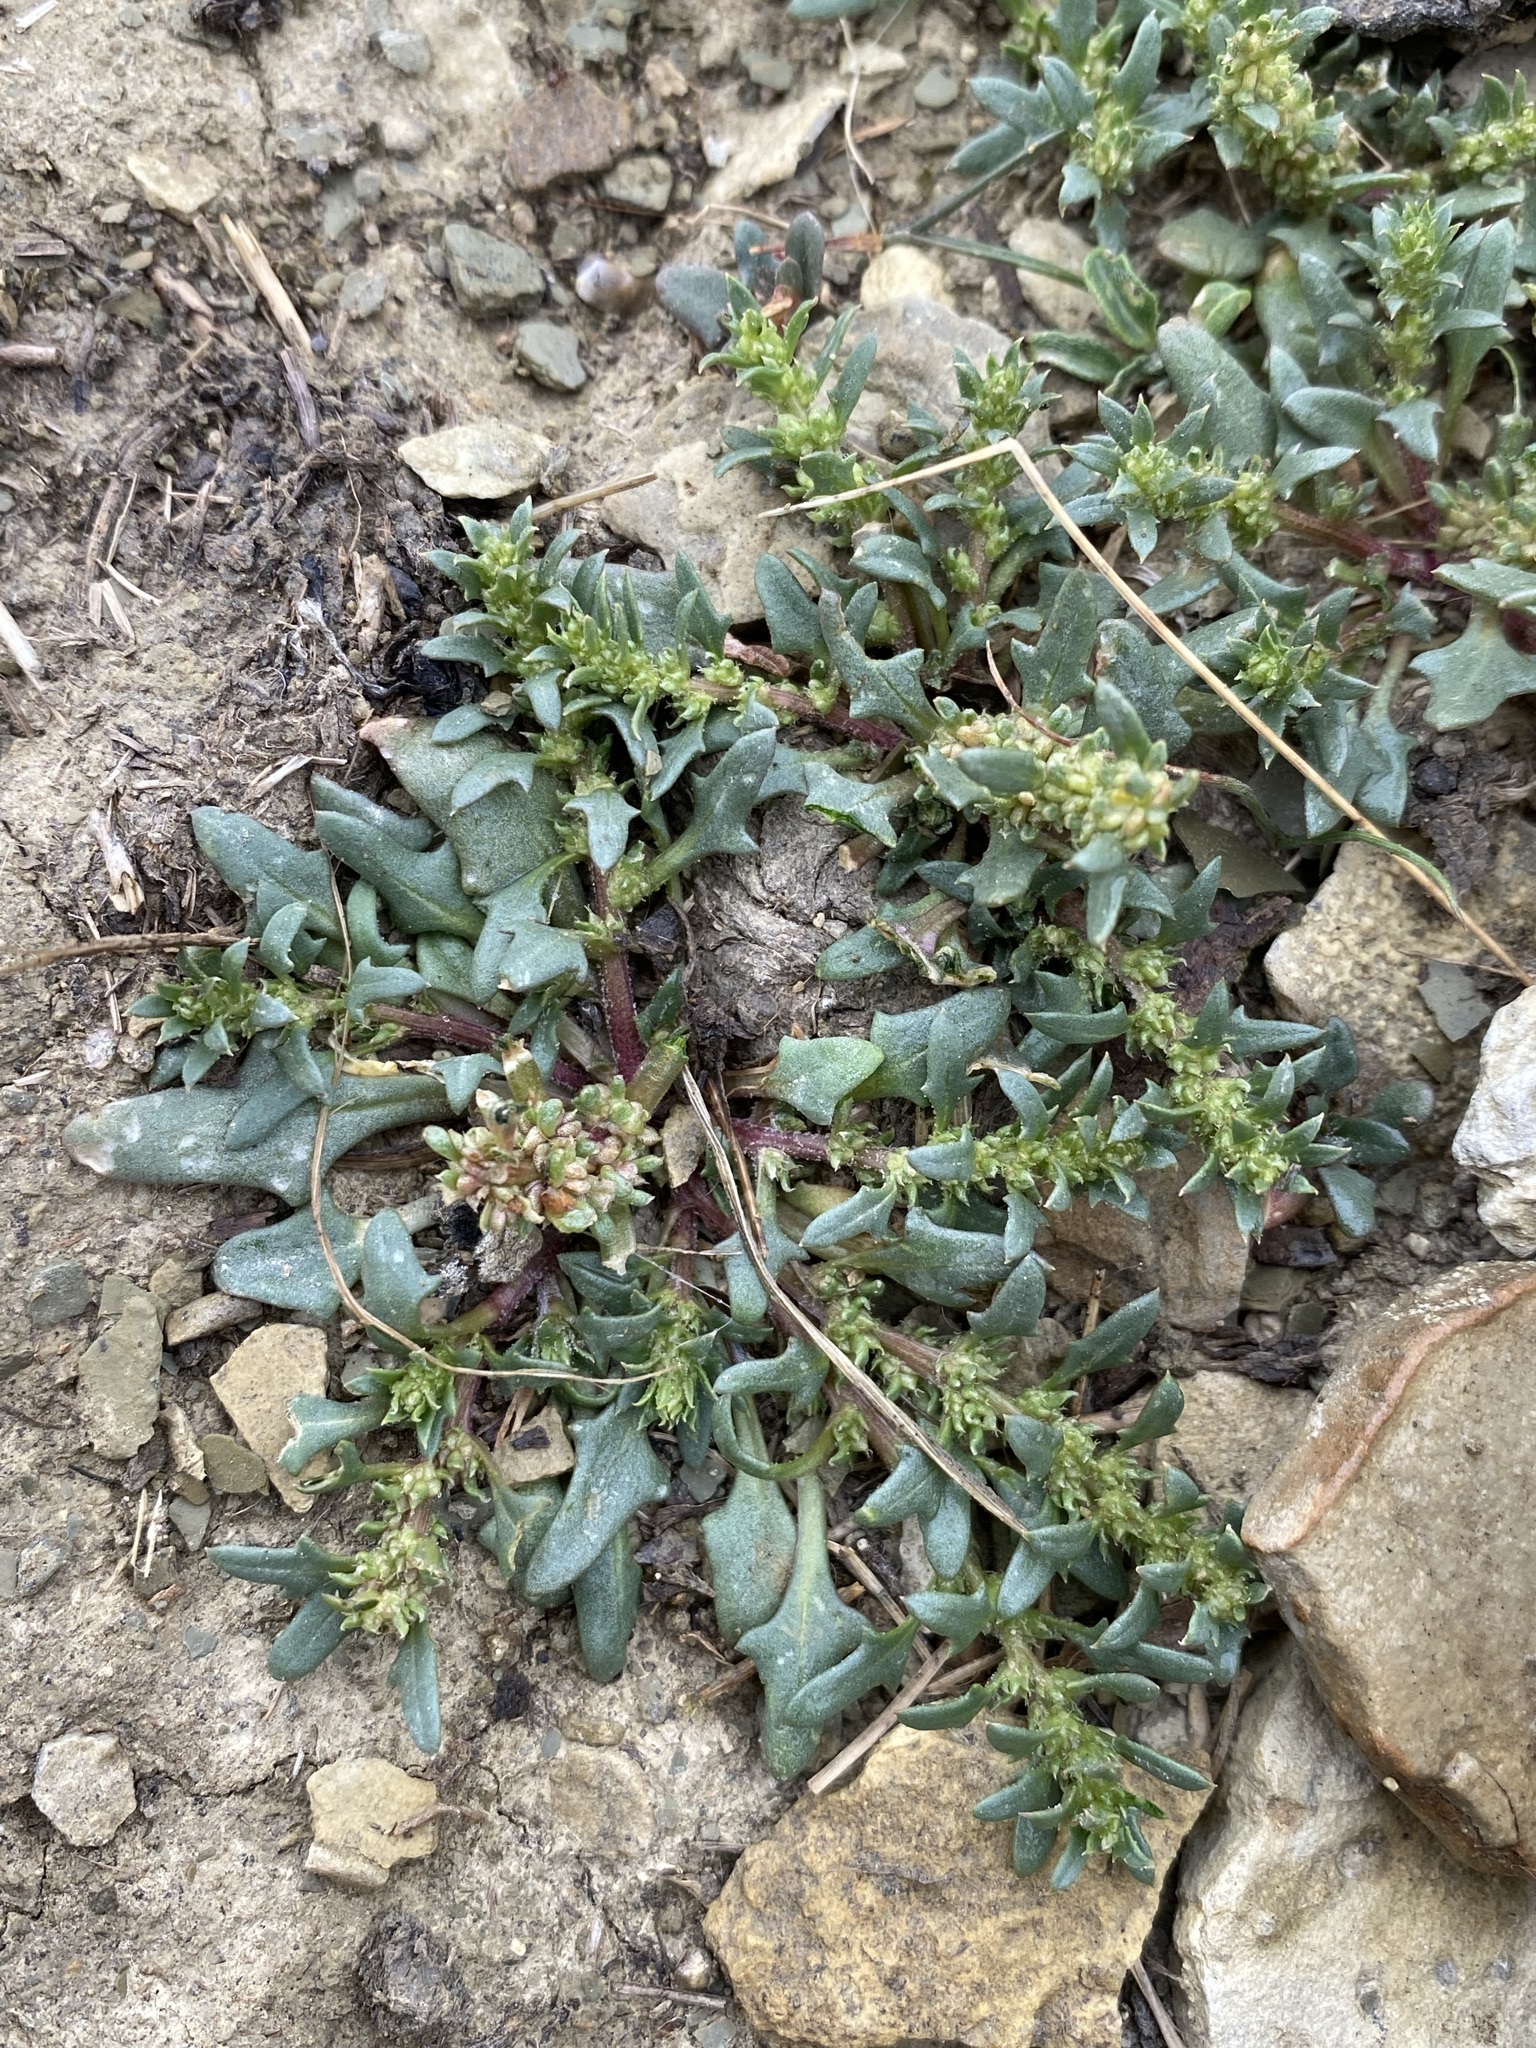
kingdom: Plantae
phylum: Tracheophyta
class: Magnoliopsida
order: Caryophyllales
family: Amaranthaceae
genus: Blitum
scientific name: Blitum nuttallianum
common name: Poverty-weed
